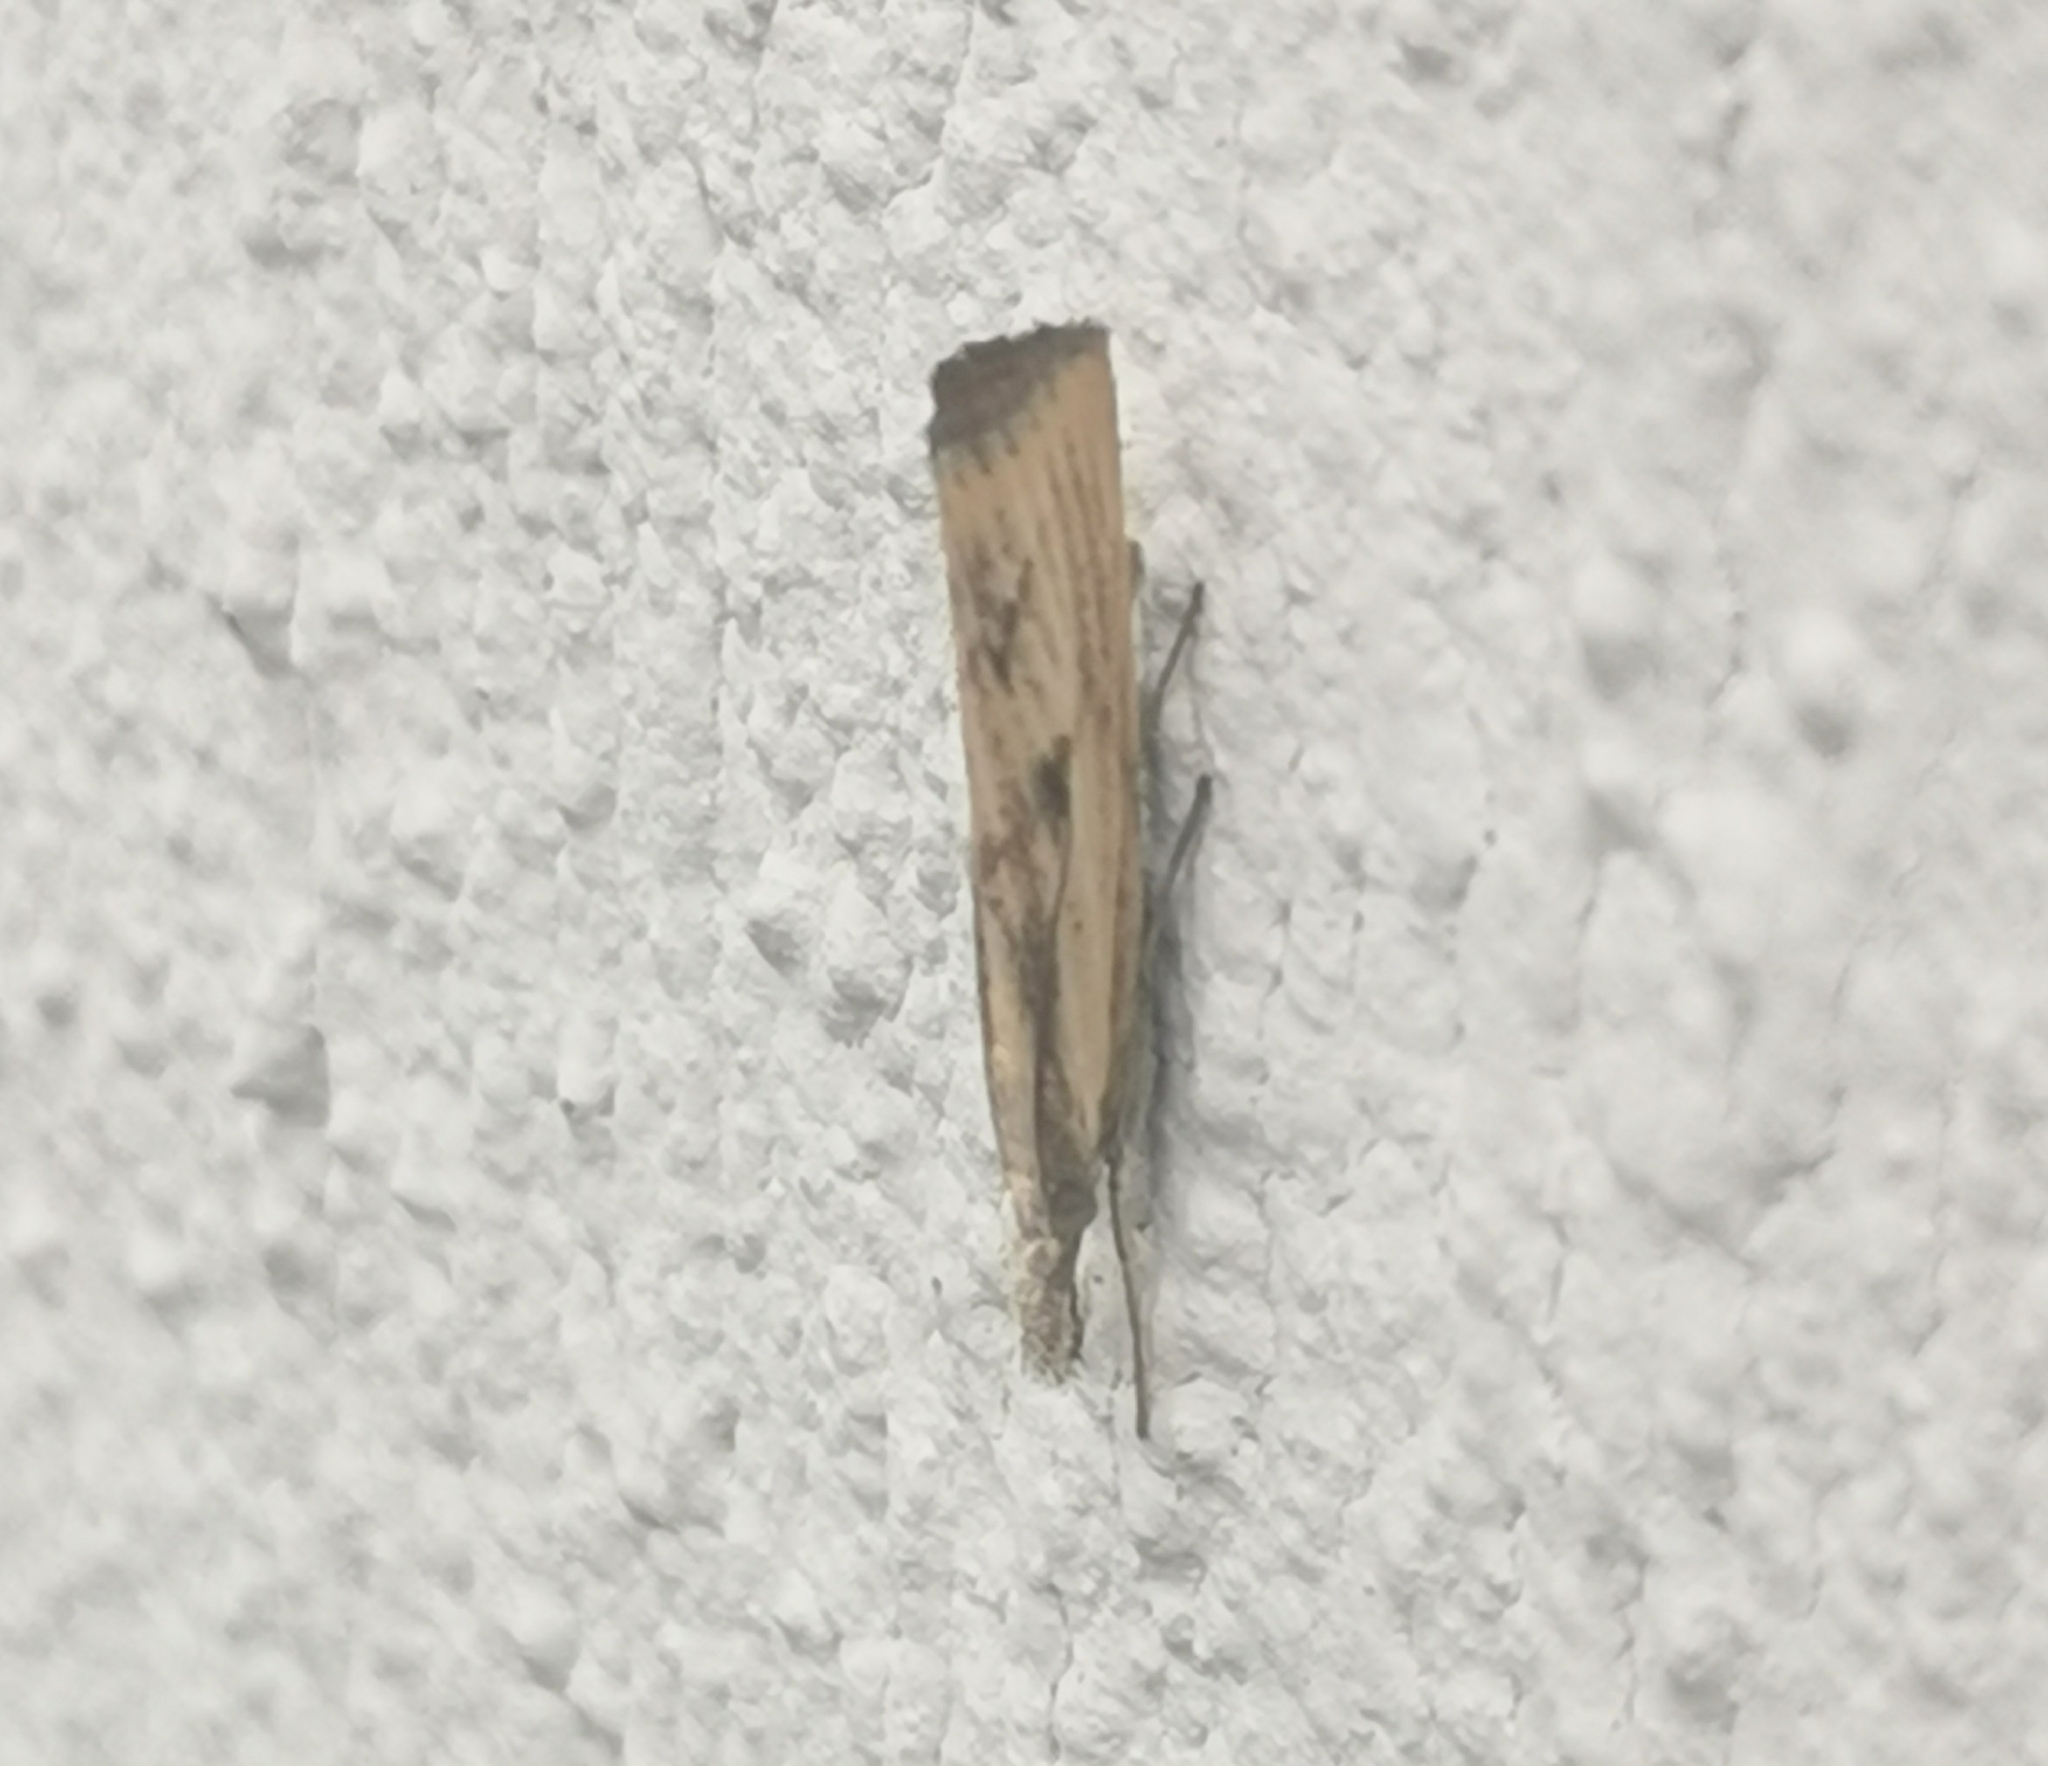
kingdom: Animalia
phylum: Arthropoda
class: Insecta
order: Lepidoptera
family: Crambidae
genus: Agriphila
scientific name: Agriphila inquinatella
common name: Barred grass-veneer
